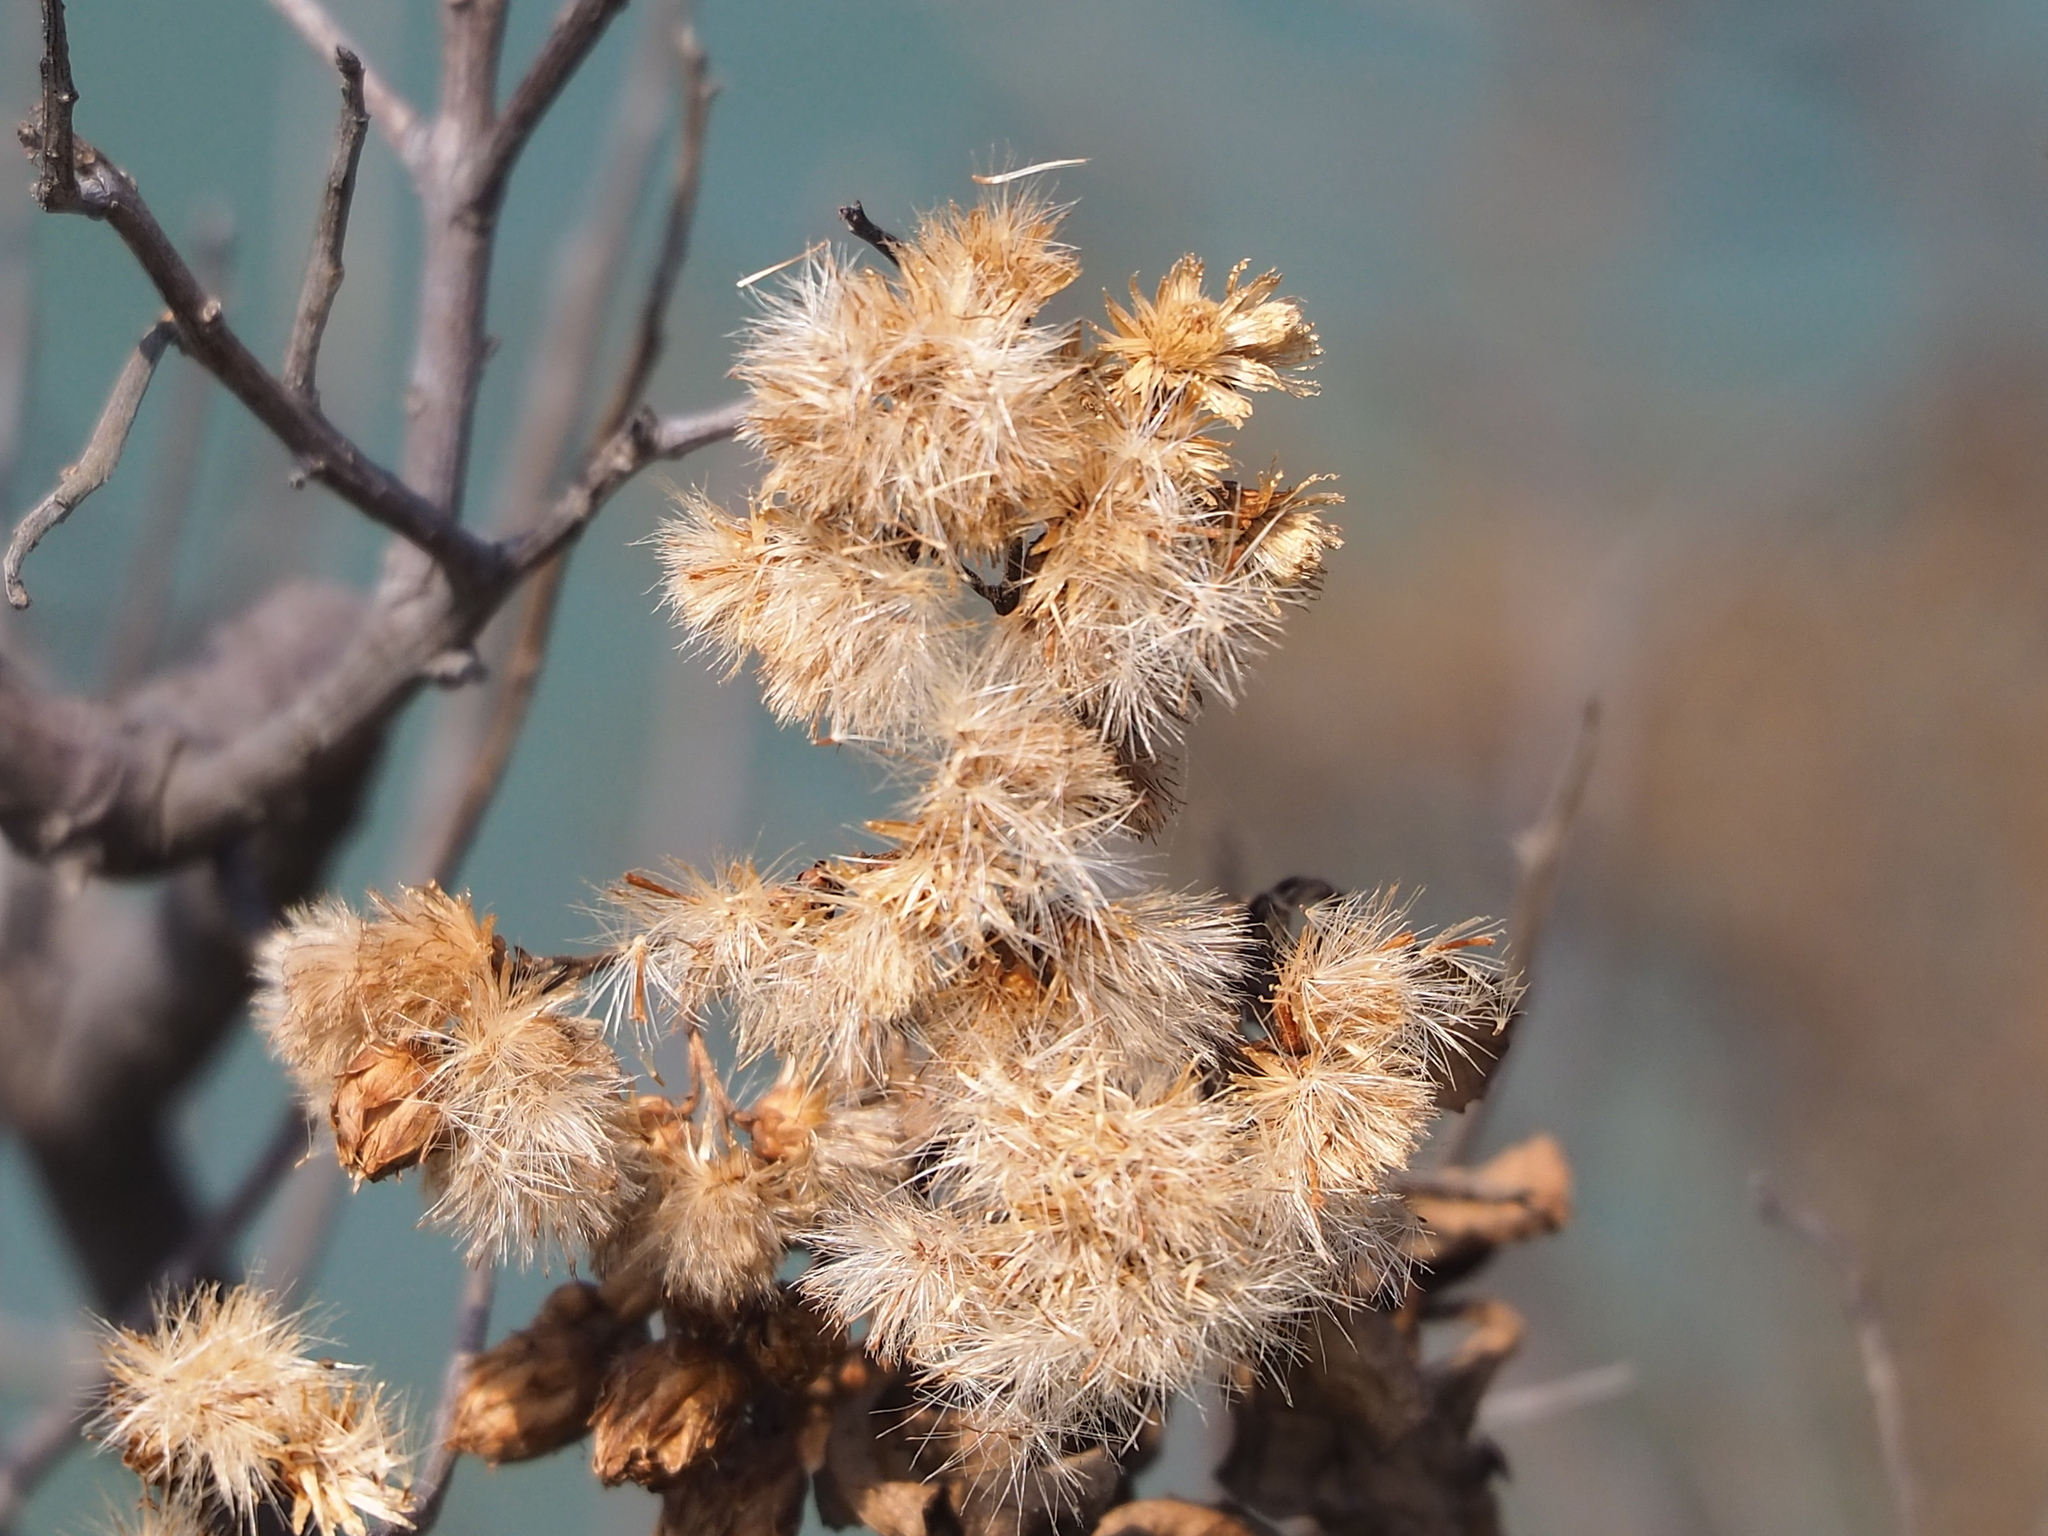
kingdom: Plantae
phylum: Tracheophyta
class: Magnoliopsida
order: Asterales
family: Asteraceae
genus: Pluchea
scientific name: Pluchea indica
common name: Indian fleabane
